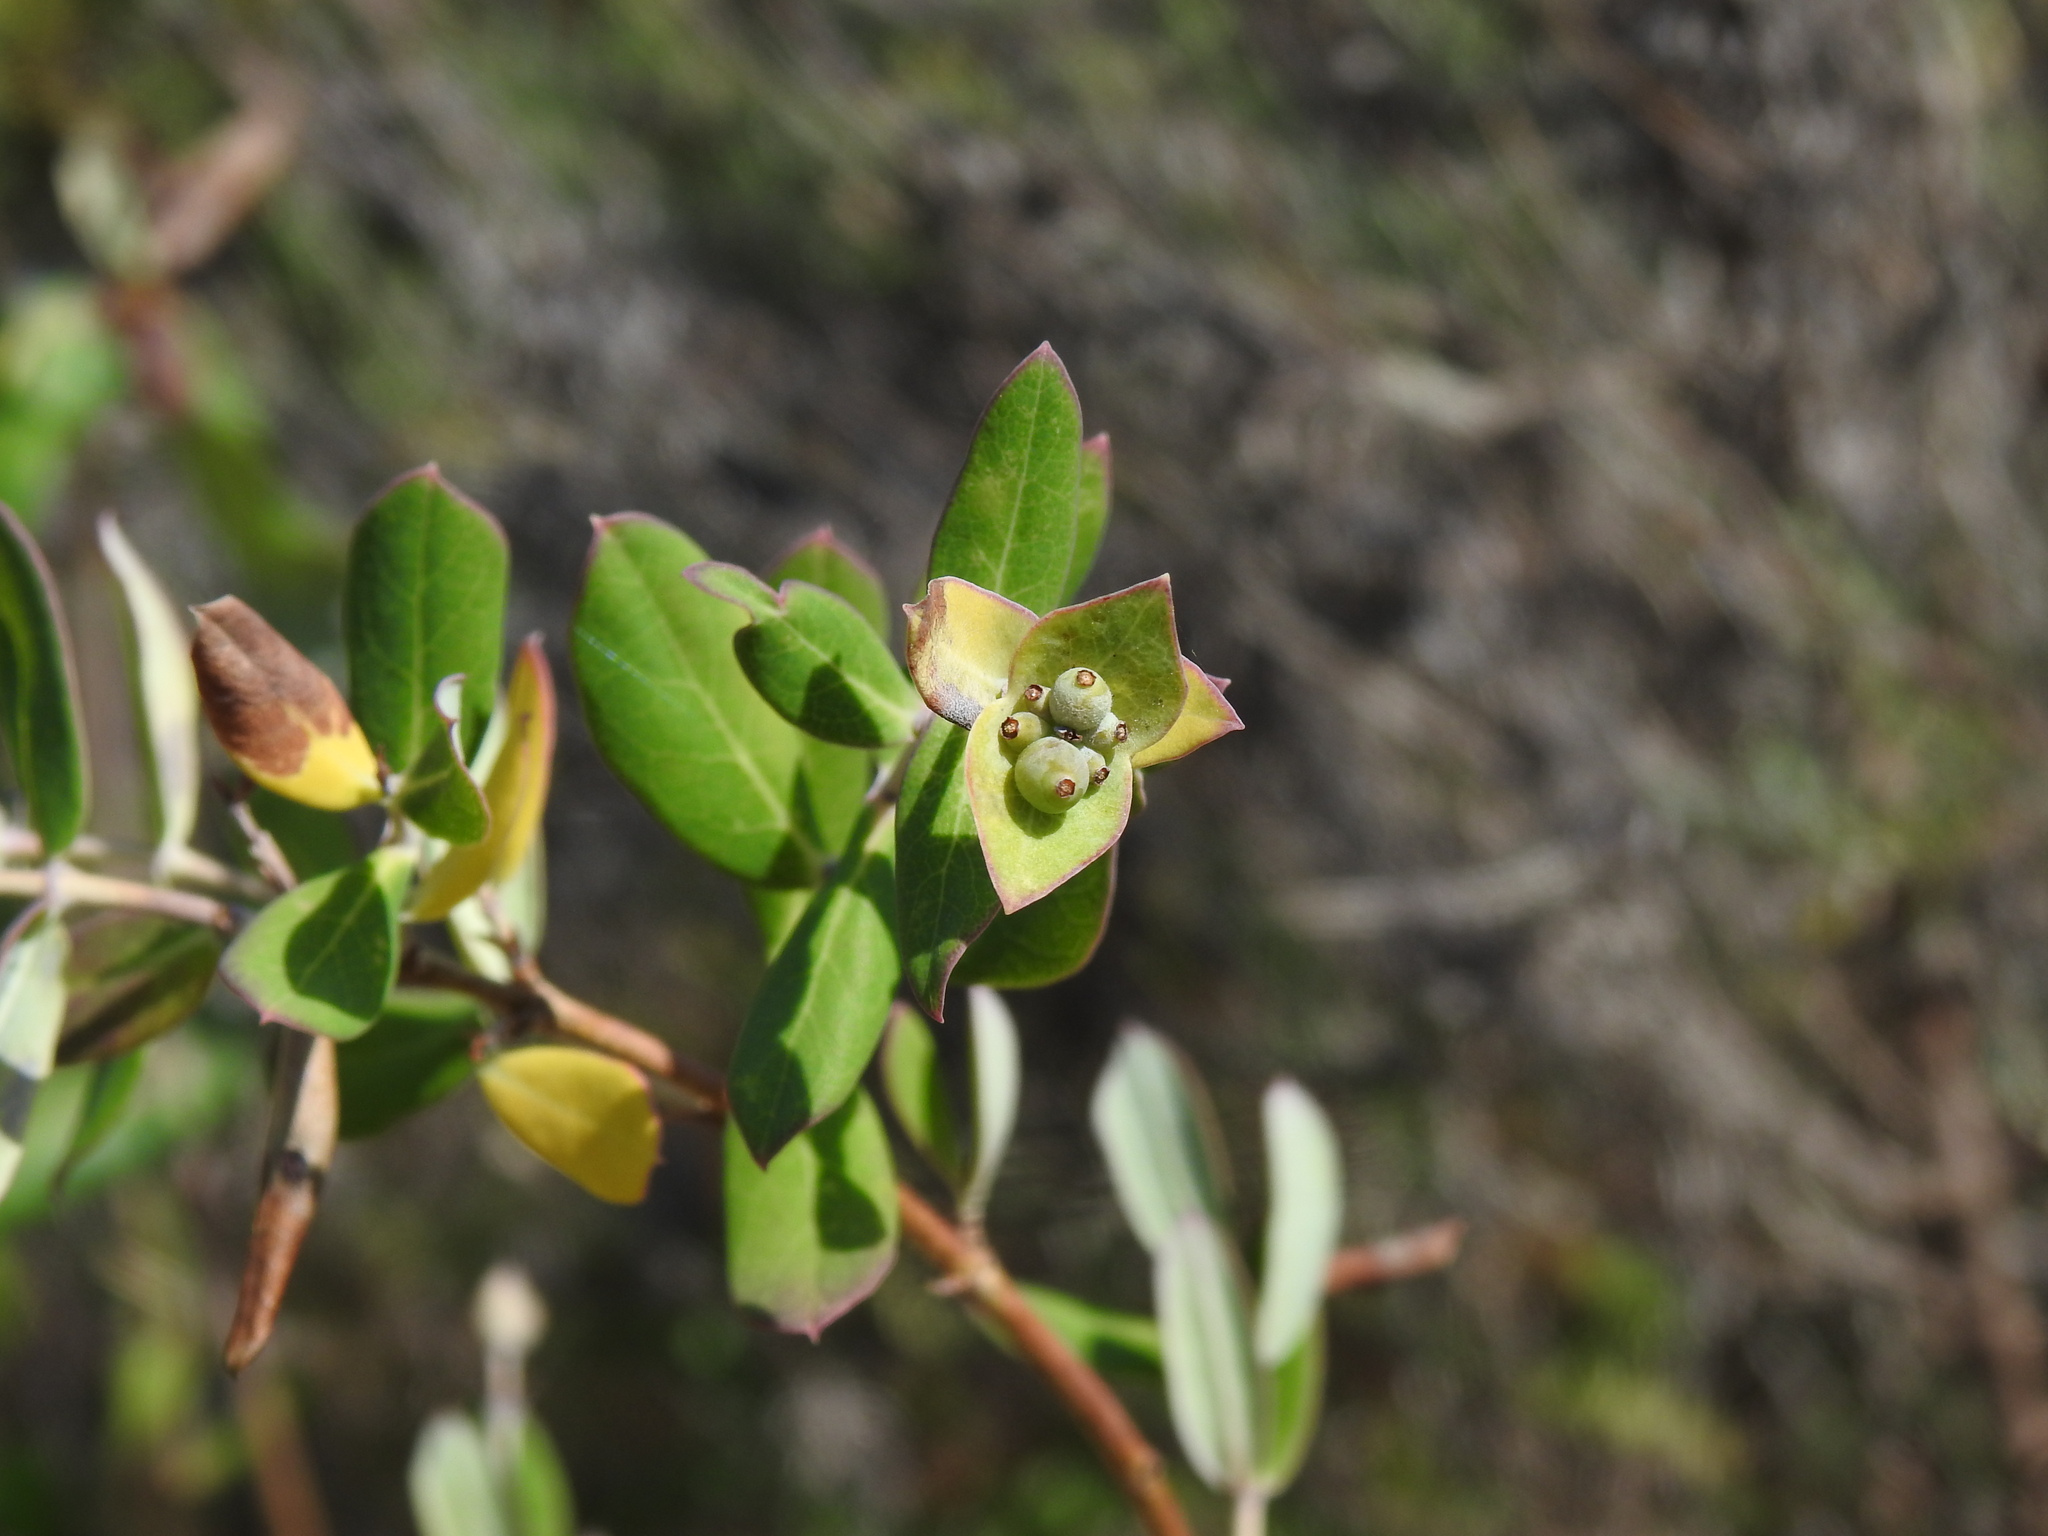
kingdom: Plantae
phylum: Tracheophyta
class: Magnoliopsida
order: Dipsacales
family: Caprifoliaceae
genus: Lonicera
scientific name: Lonicera implexa
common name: Minorca honeysuckle
